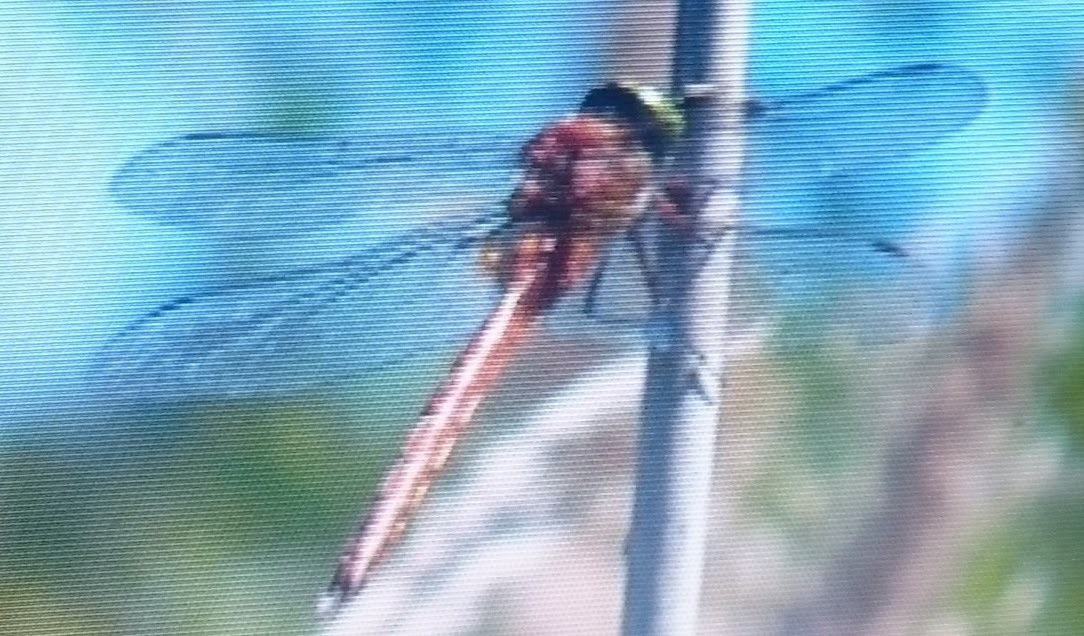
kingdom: Animalia
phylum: Arthropoda
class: Insecta
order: Odonata
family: Aeshnidae
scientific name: Aeshnidae
